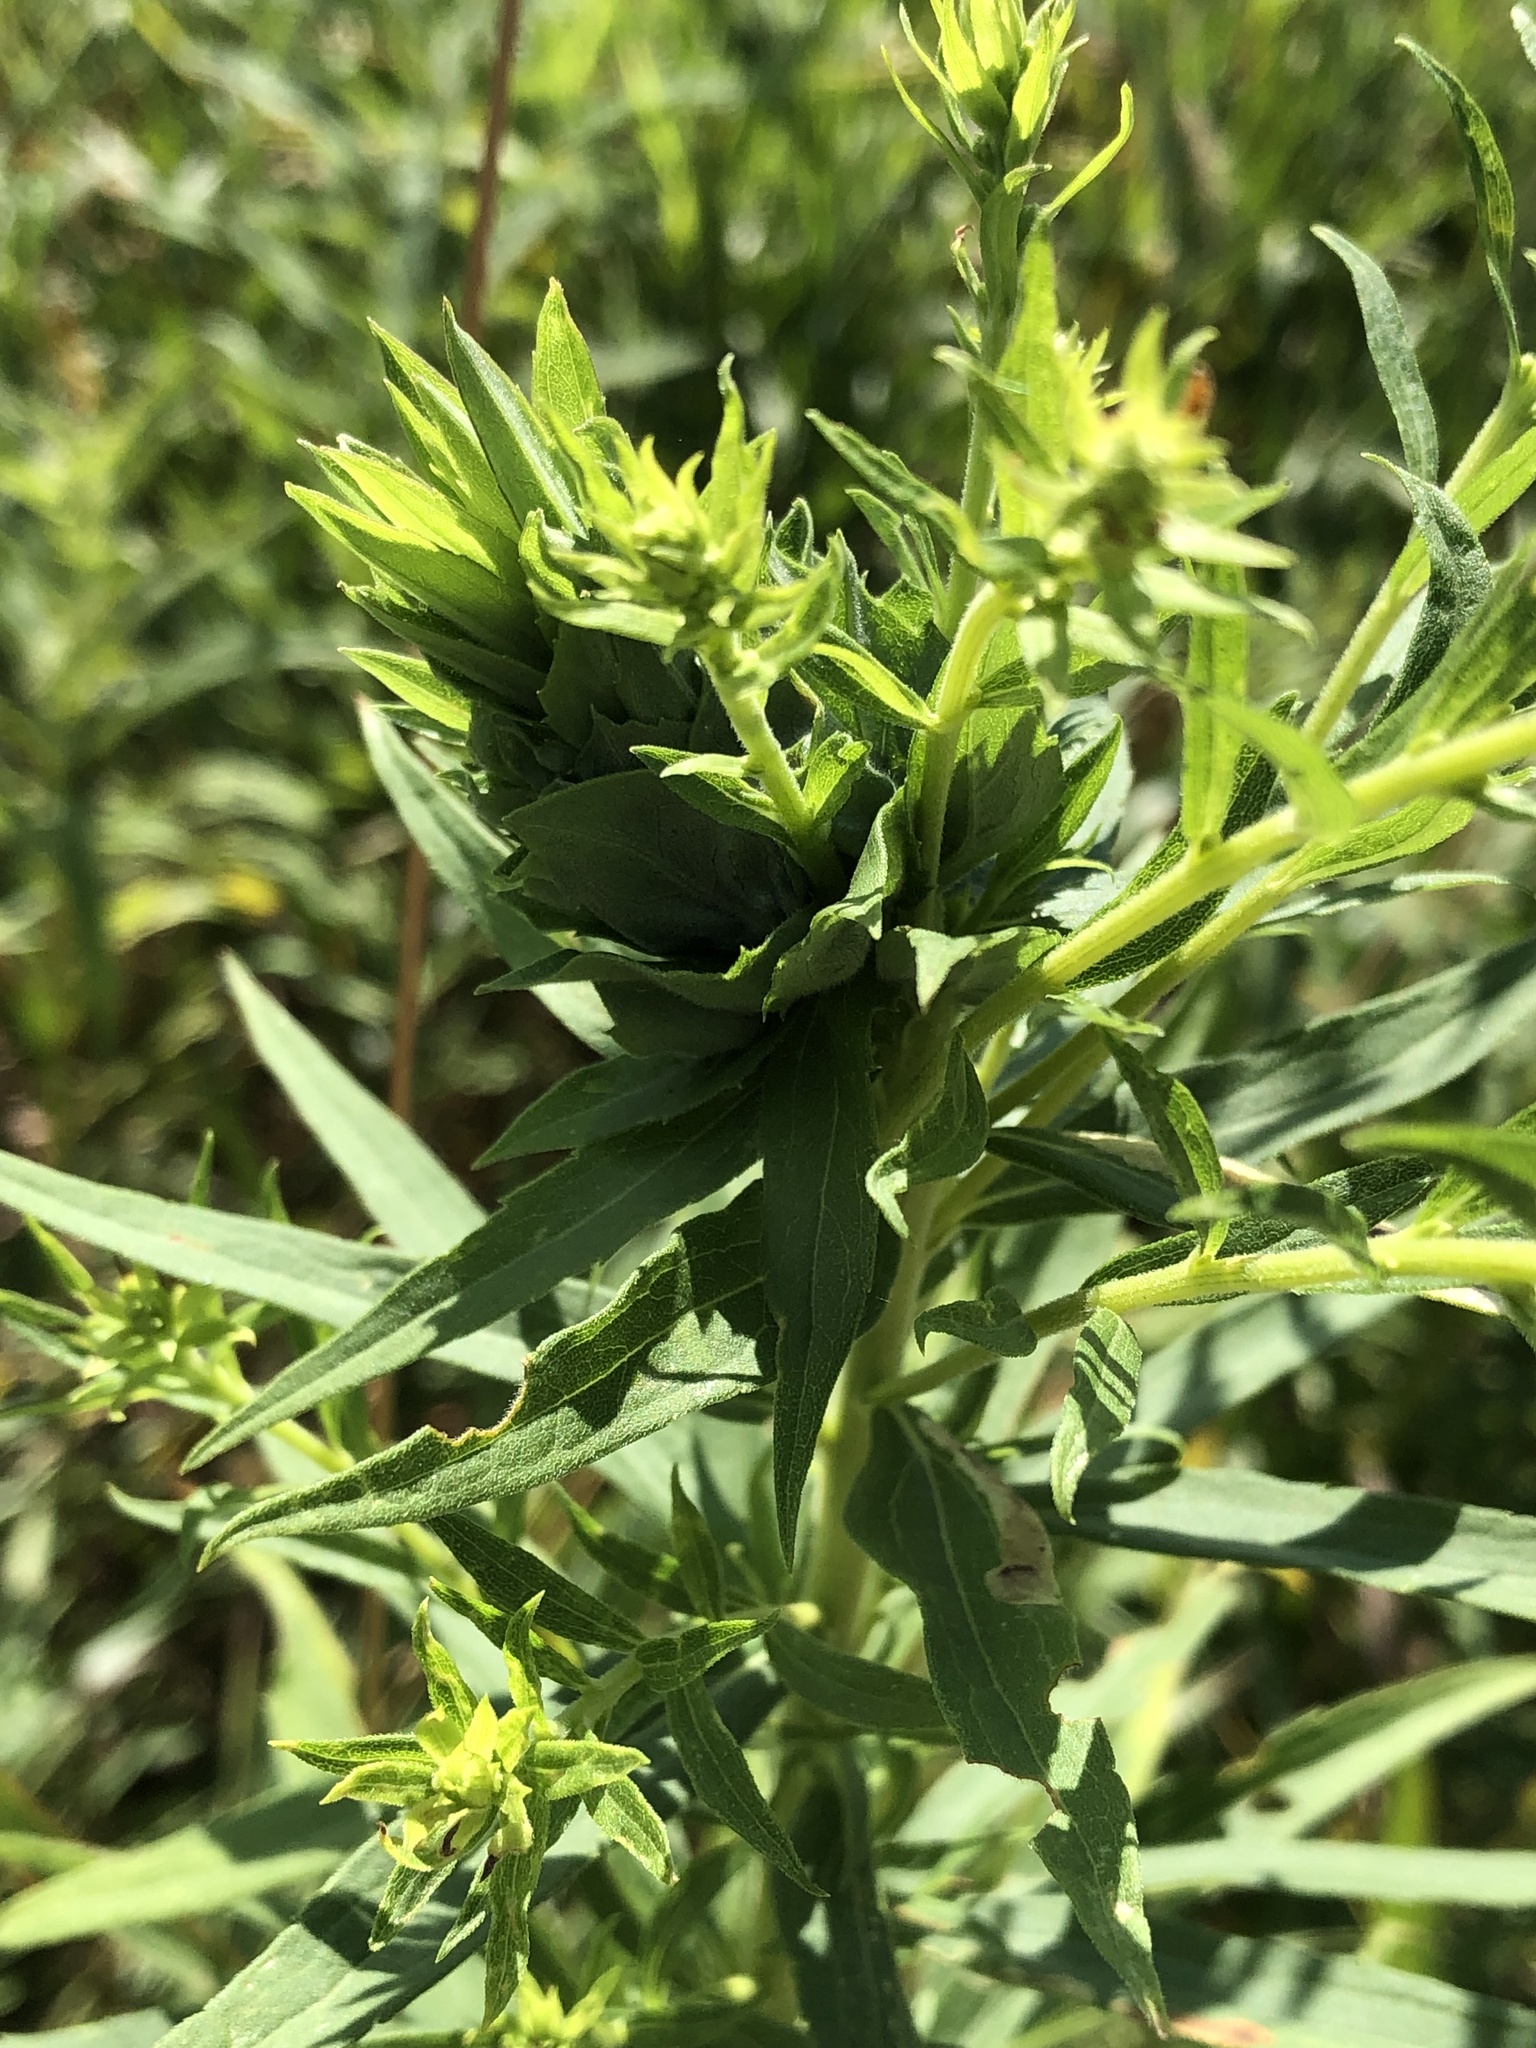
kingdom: Animalia
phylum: Arthropoda
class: Insecta
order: Diptera
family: Cecidomyiidae
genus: Rhopalomyia
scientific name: Rhopalomyia solidaginis
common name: Goldenrod bunch gall midge
